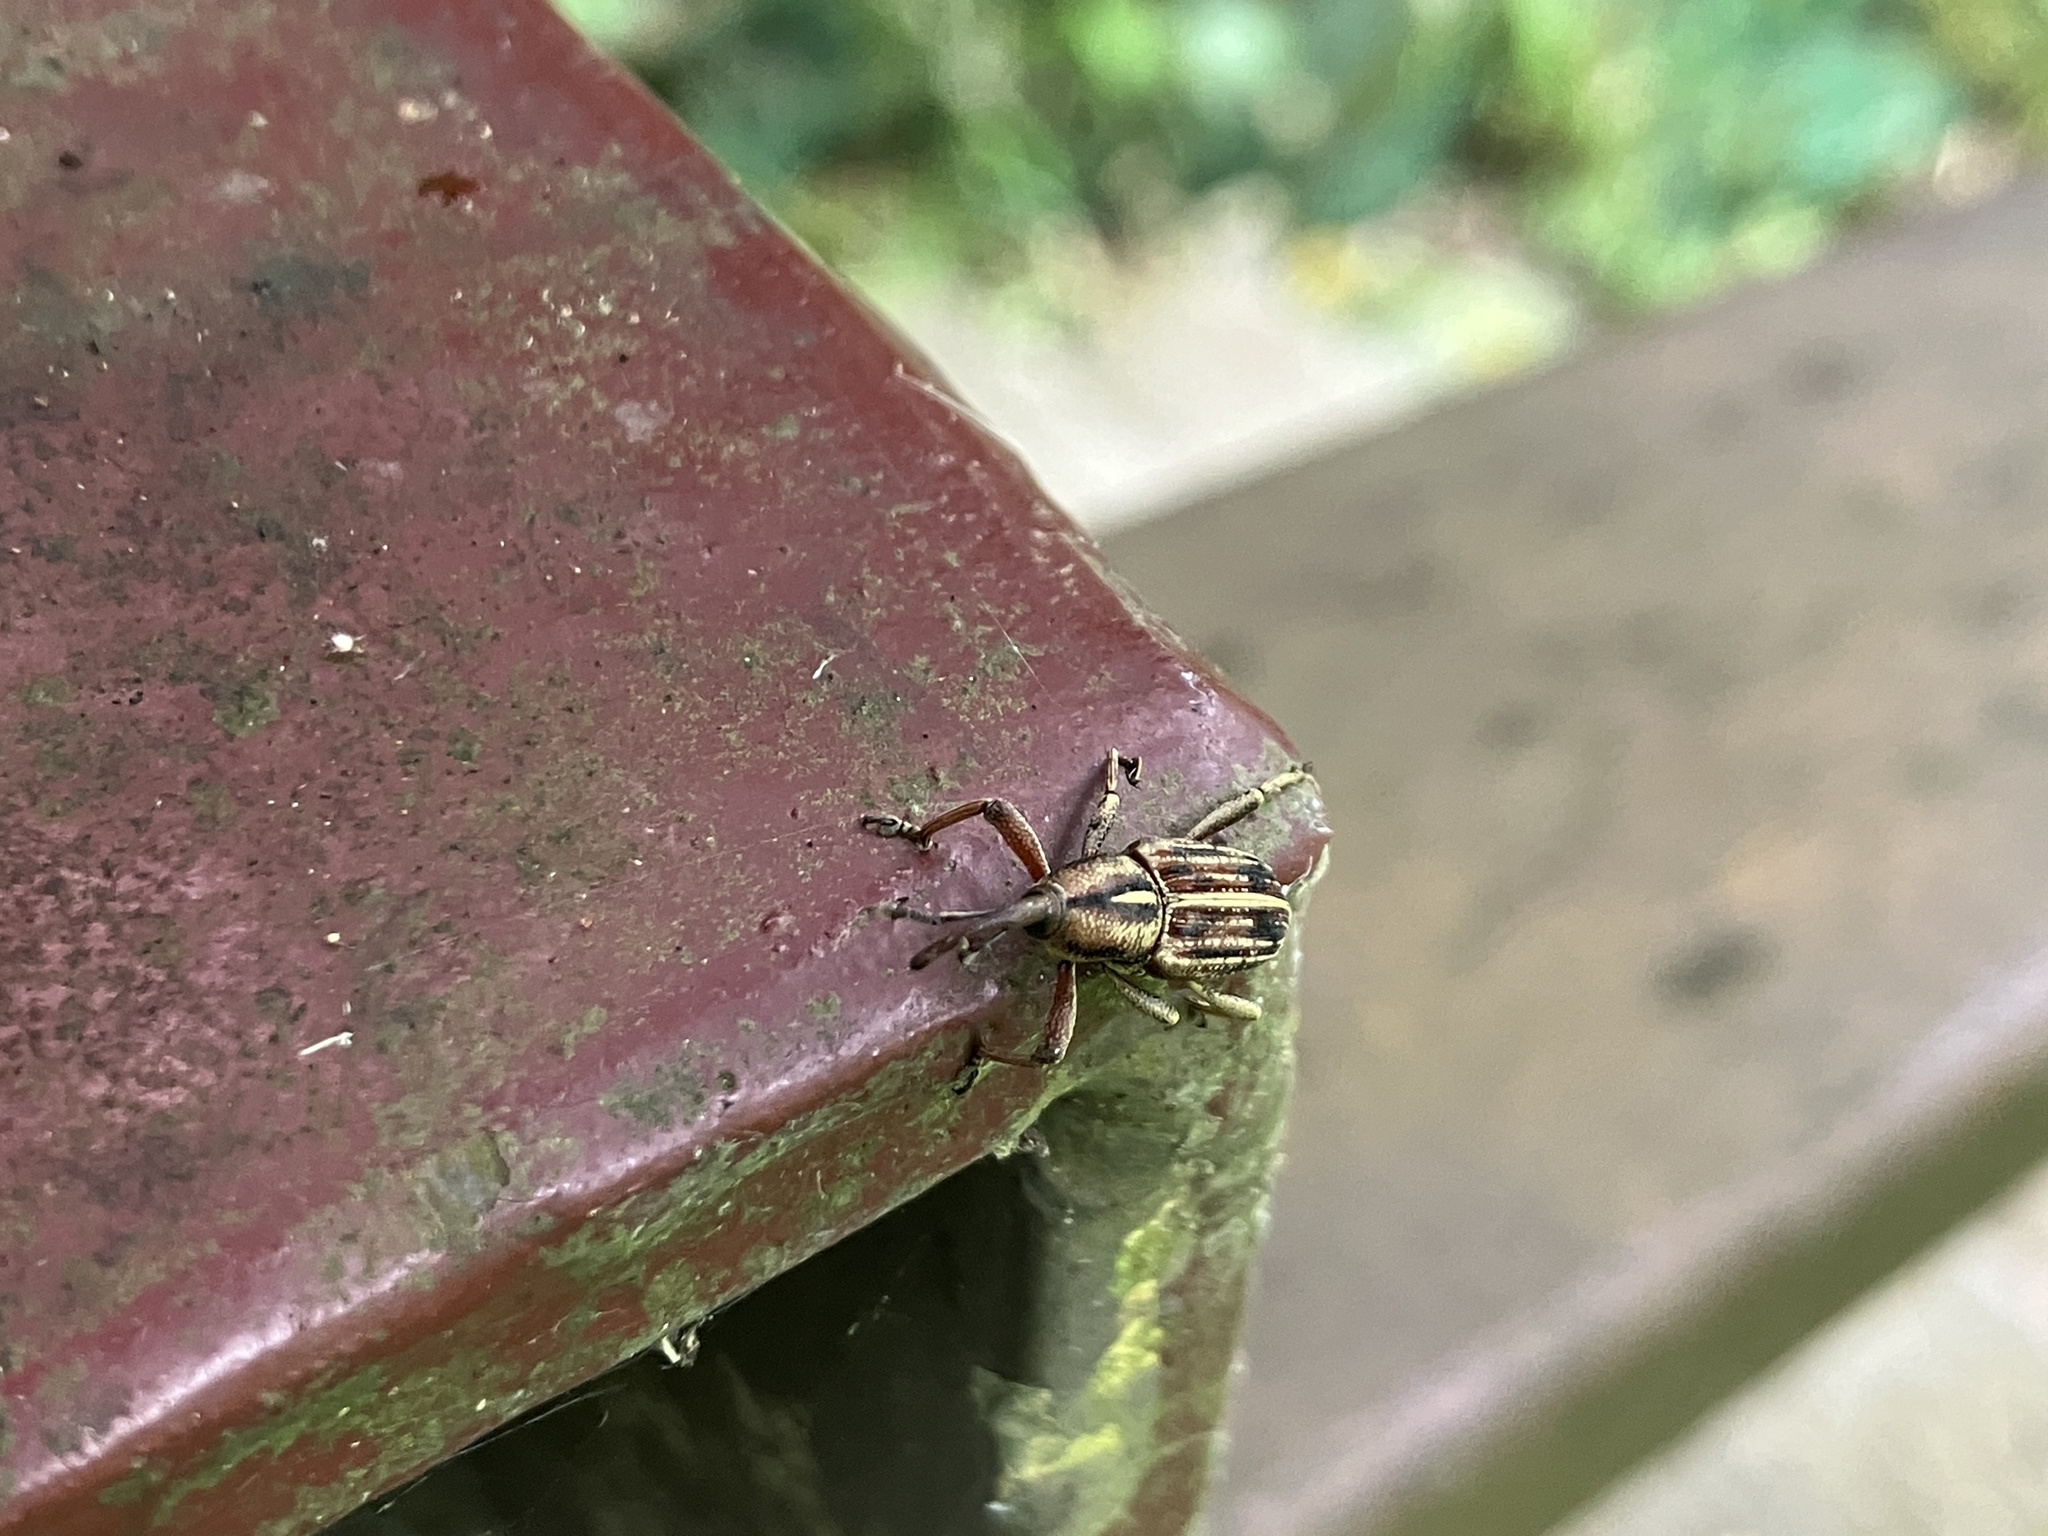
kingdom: Animalia
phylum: Arthropoda
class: Insecta
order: Coleoptera
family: Dryophthoridae
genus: Anathymus
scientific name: Anathymus lineaticollis
